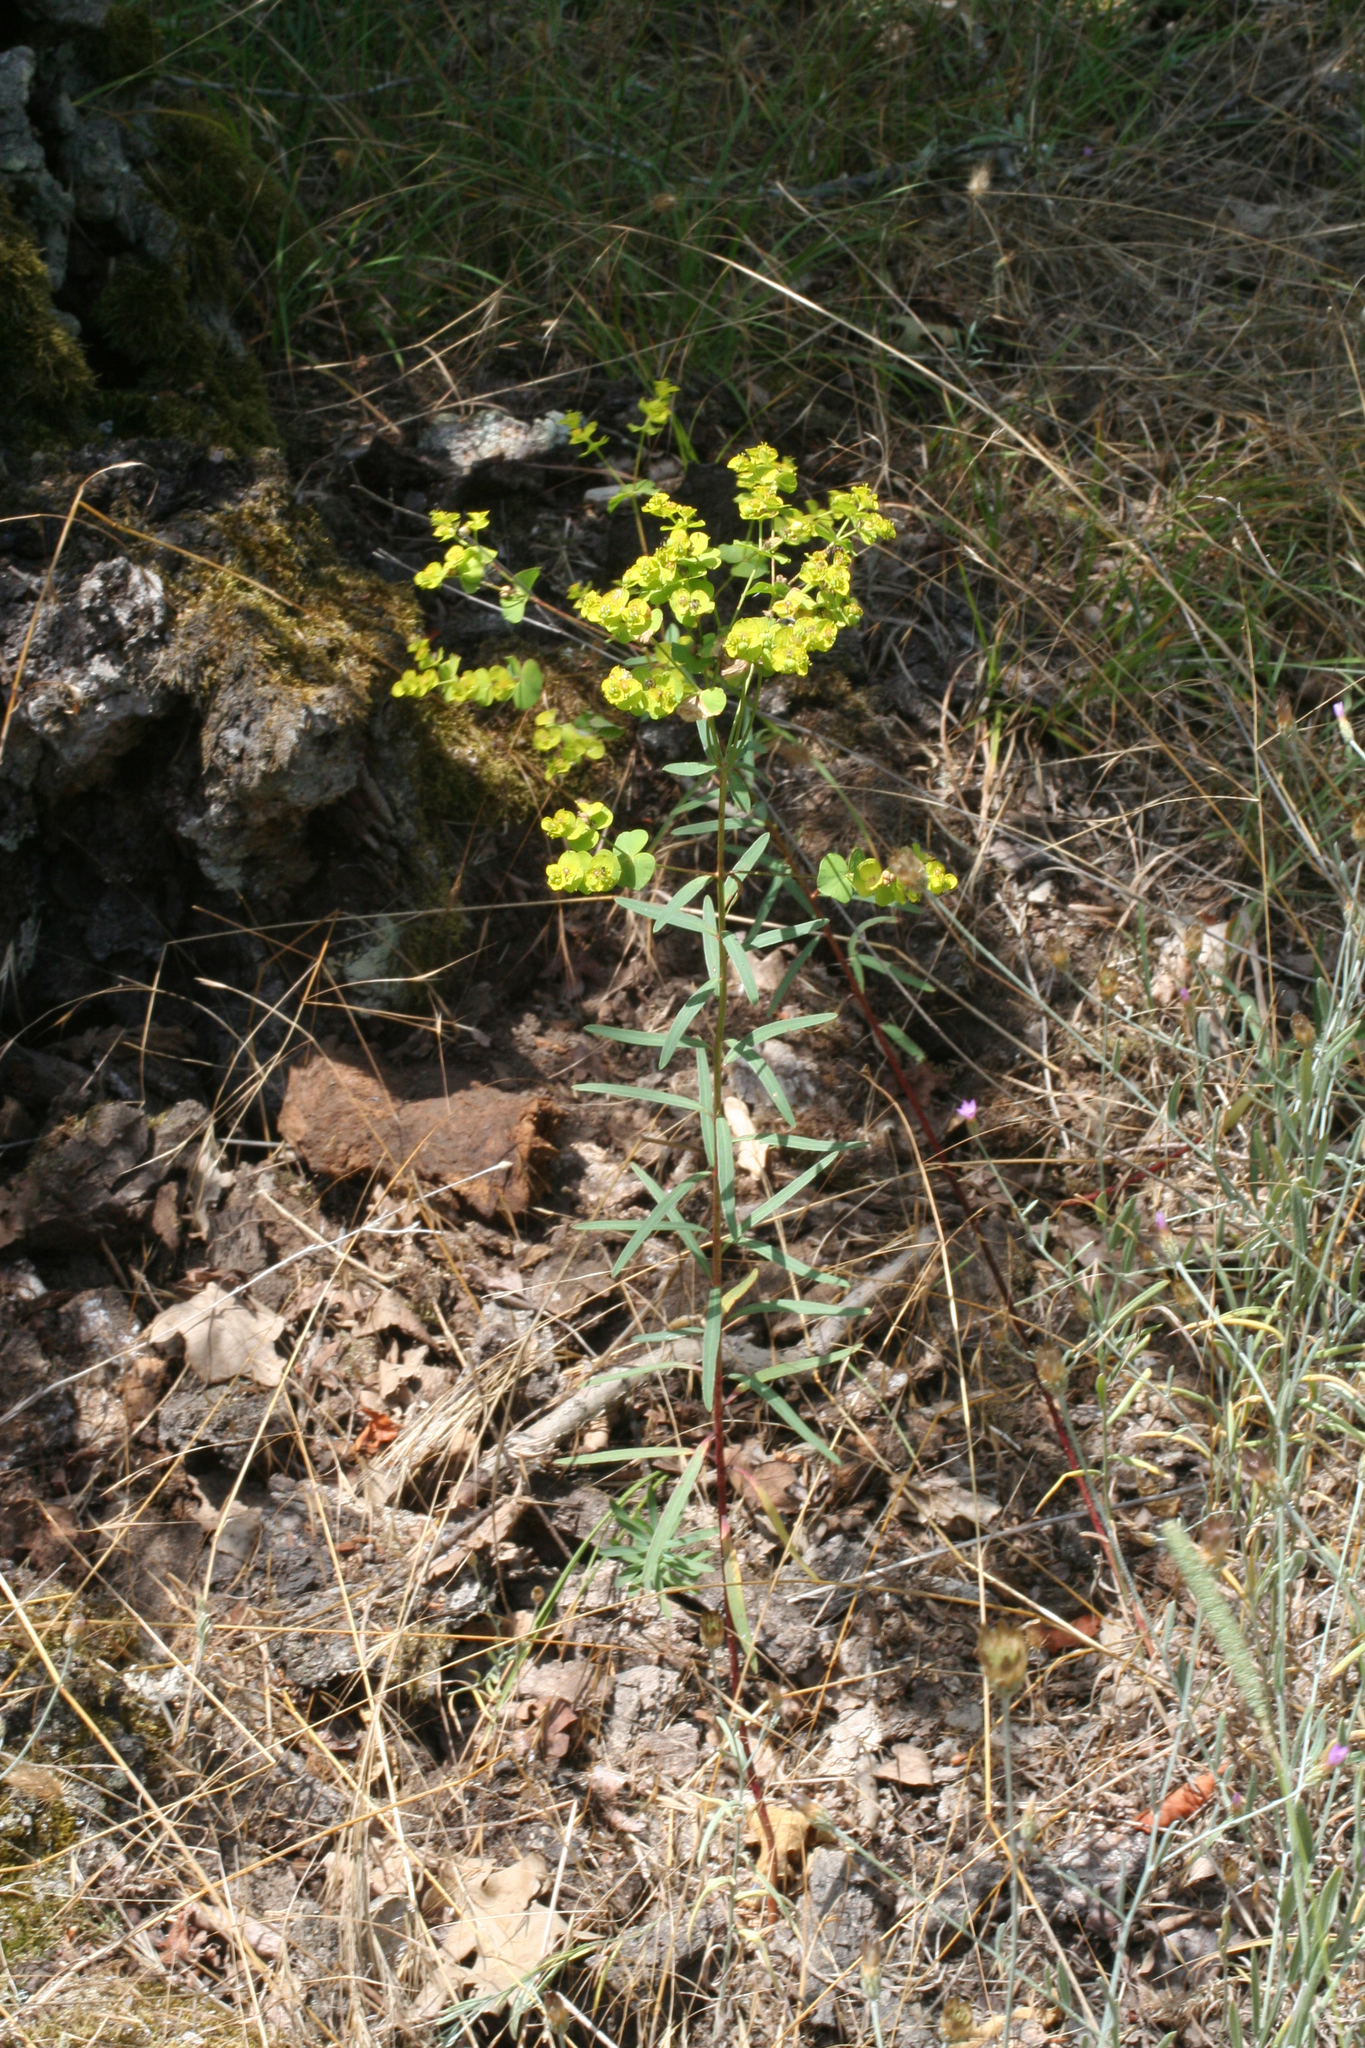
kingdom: Plantae
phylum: Tracheophyta
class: Magnoliopsida
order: Malpighiales
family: Euphorbiaceae
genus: Euphorbia
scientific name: Euphorbia virgata
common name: Leafy spurge
